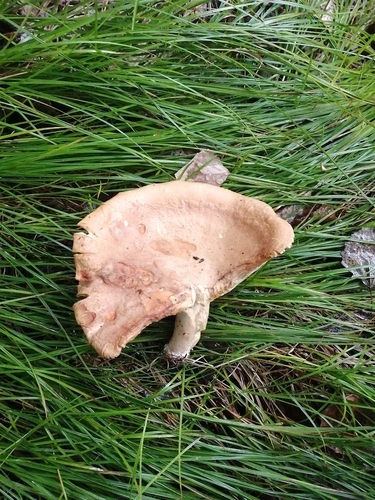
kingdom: Fungi
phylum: Basidiomycota
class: Agaricomycetes
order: Russulales
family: Russulaceae
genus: Lactarius
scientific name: Lactarius helvus
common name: Fenugreek milkcap
